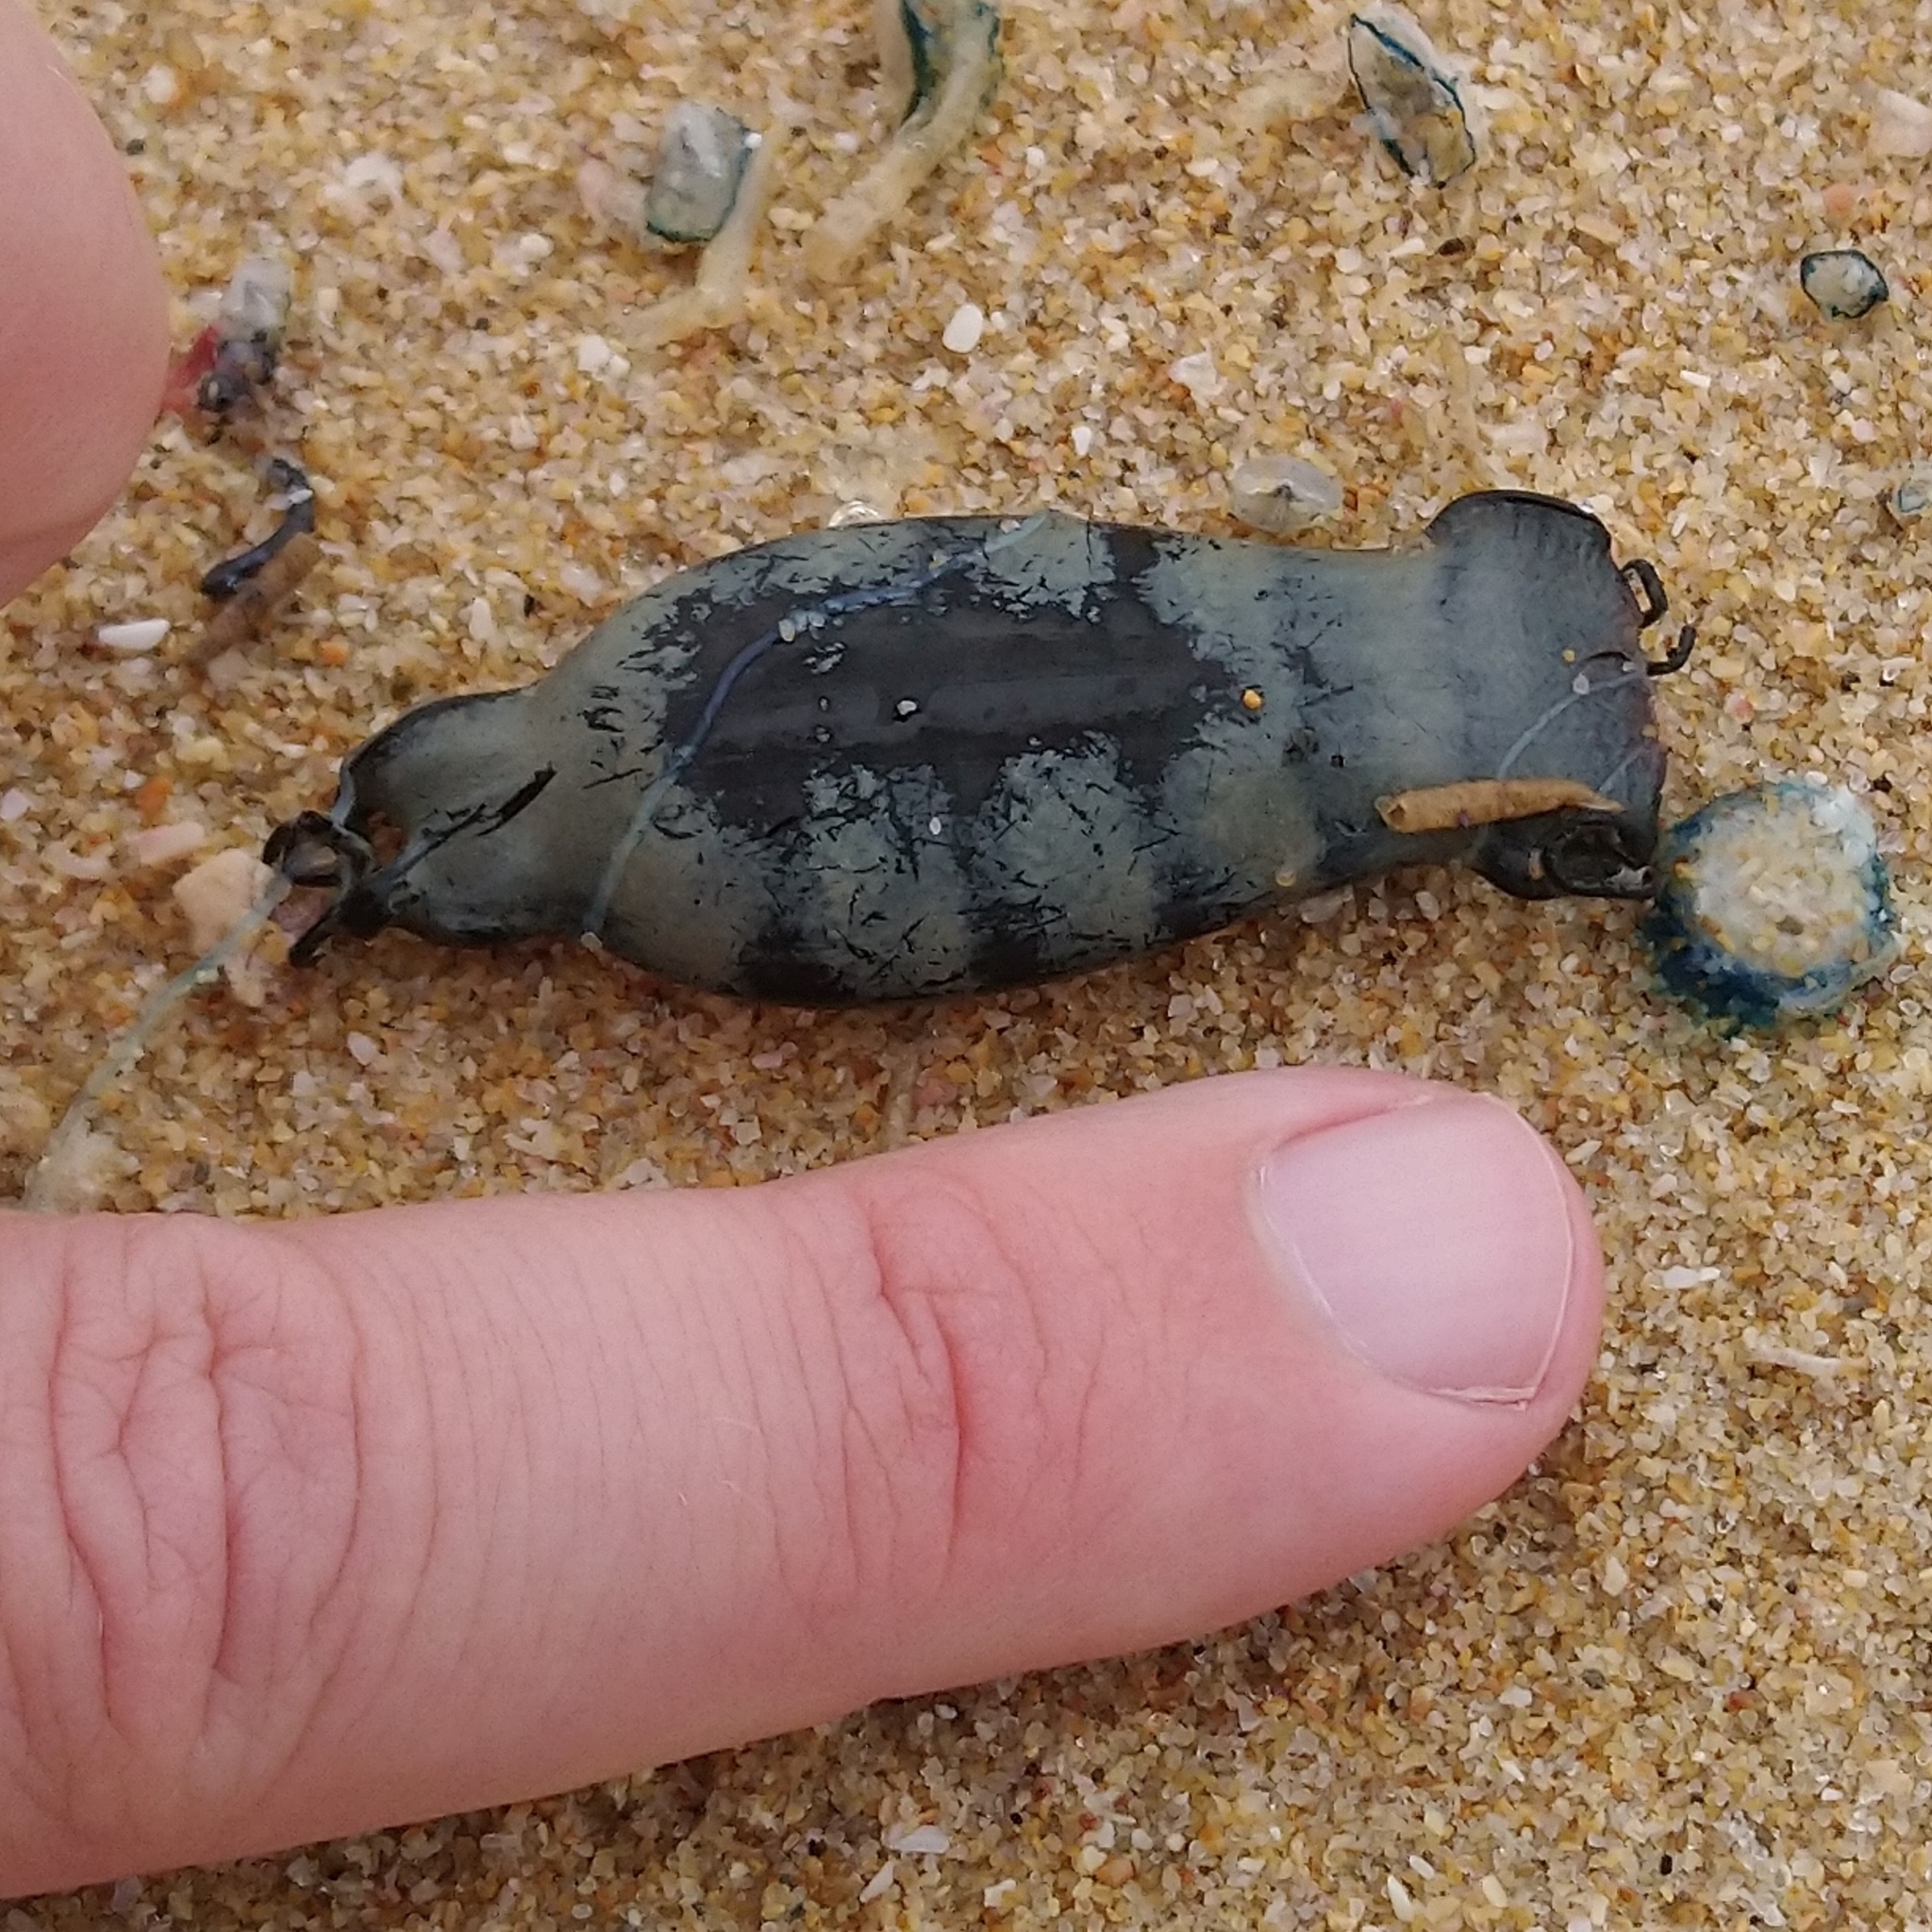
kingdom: Animalia
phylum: Chordata
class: Elasmobranchii
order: Carcharhiniformes
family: Scyliorhinidae
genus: Haploblepharus
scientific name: Haploblepharus edwardsii
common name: Puffadder shyshark
